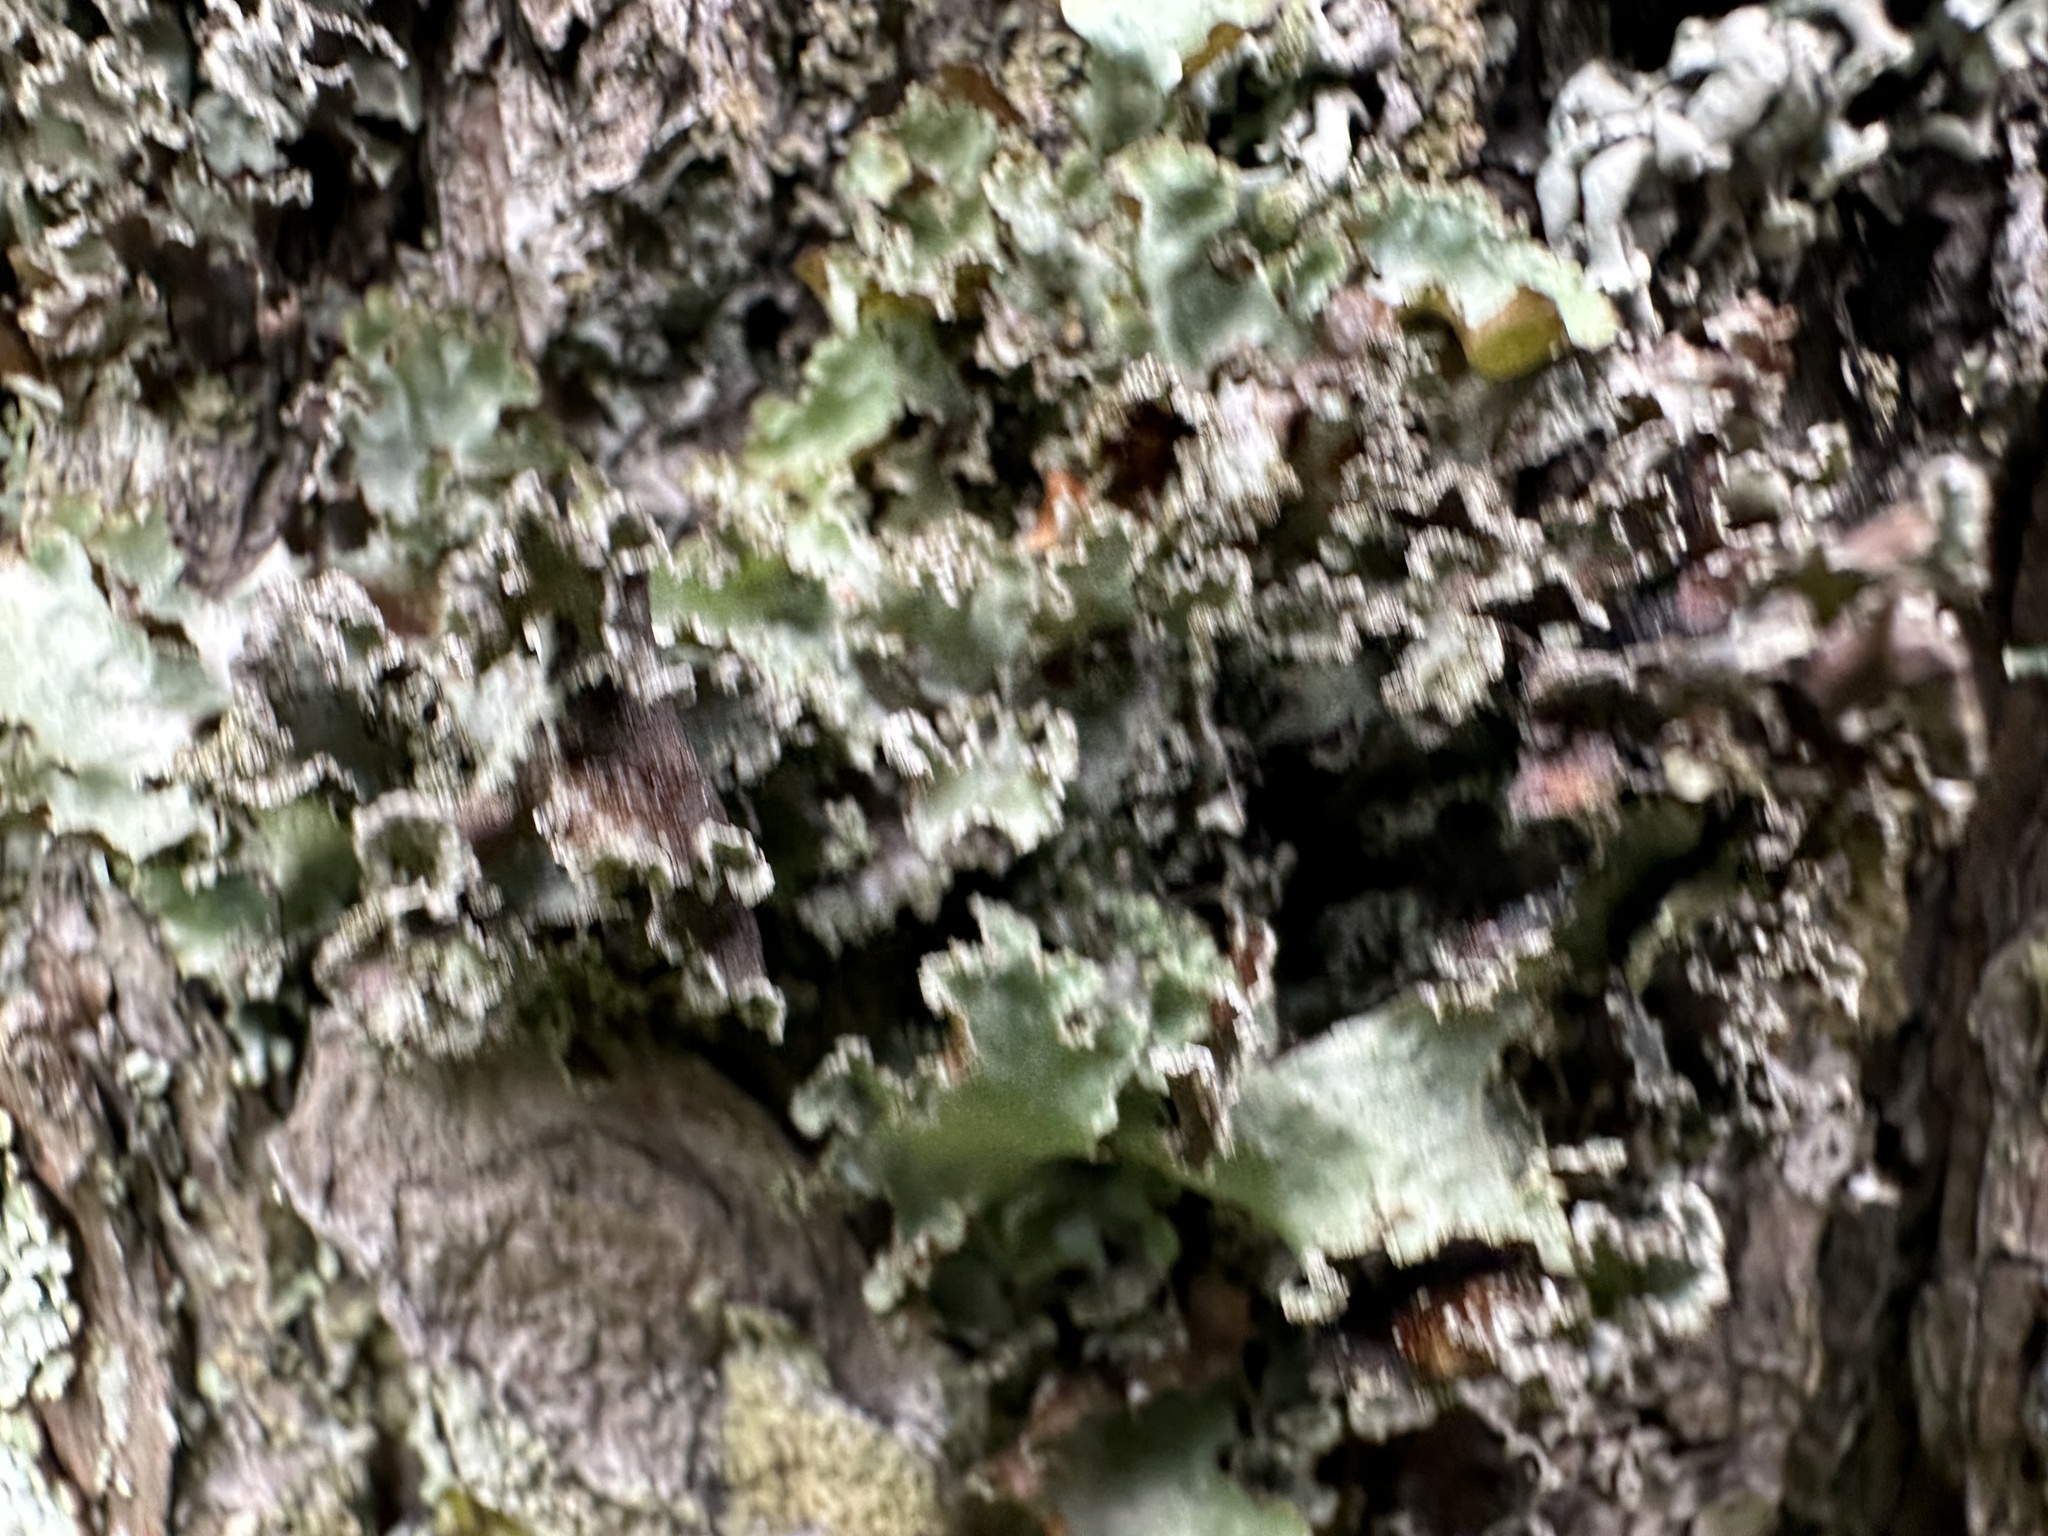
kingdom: Fungi
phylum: Ascomycota
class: Lecanoromycetes
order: Lecanorales
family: Parmeliaceae
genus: Platismatia
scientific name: Platismatia glauca
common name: Varied rag lichen
